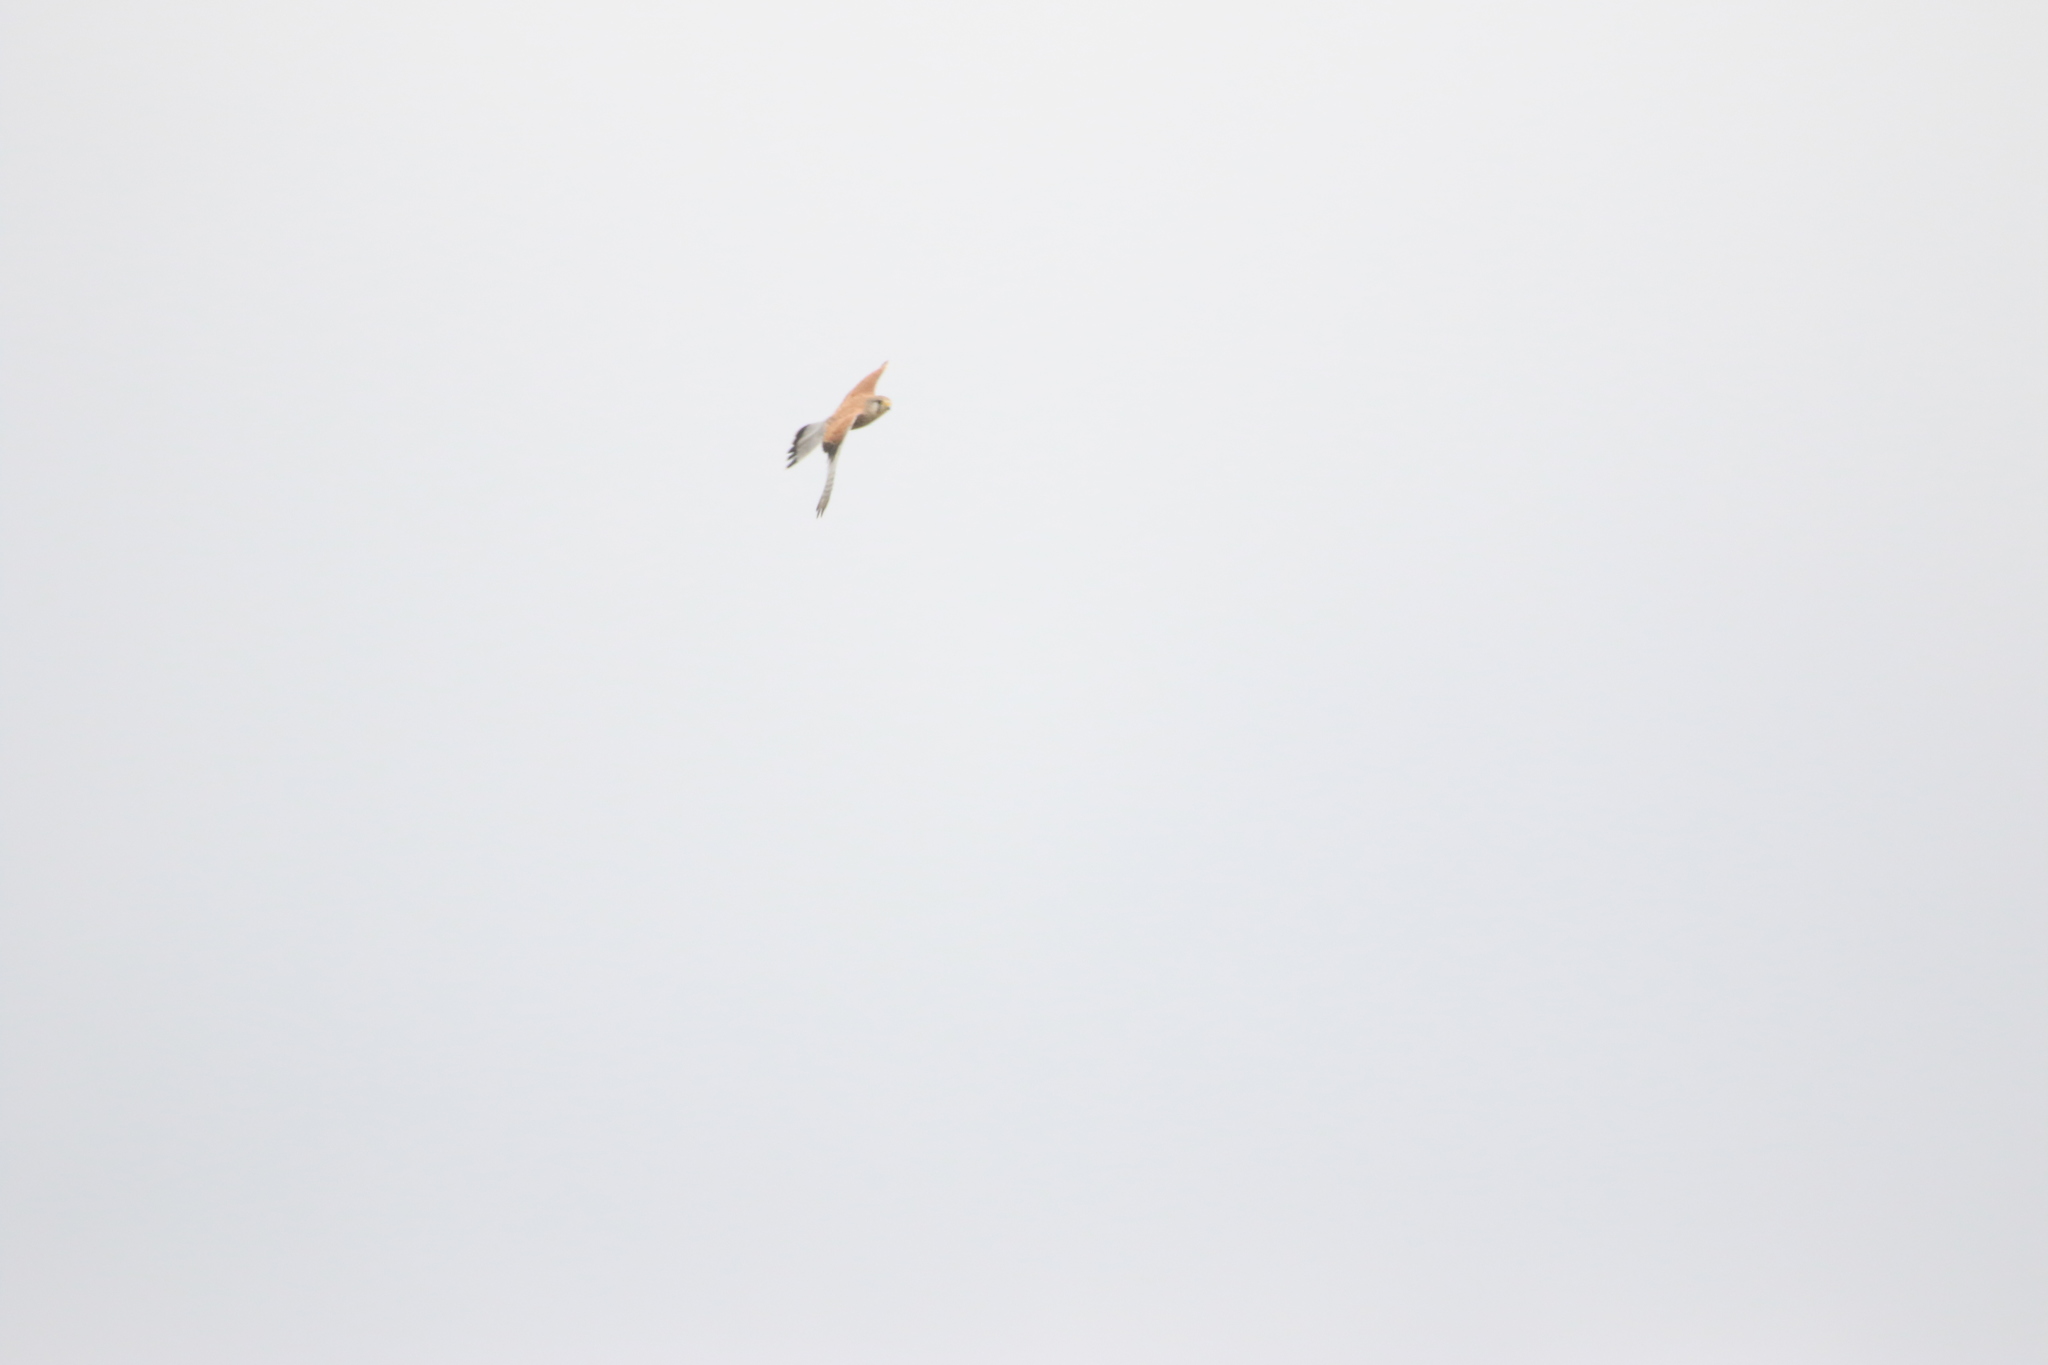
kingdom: Animalia
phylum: Chordata
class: Aves
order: Falconiformes
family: Falconidae
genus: Falco
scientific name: Falco tinnunculus
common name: Common kestrel
